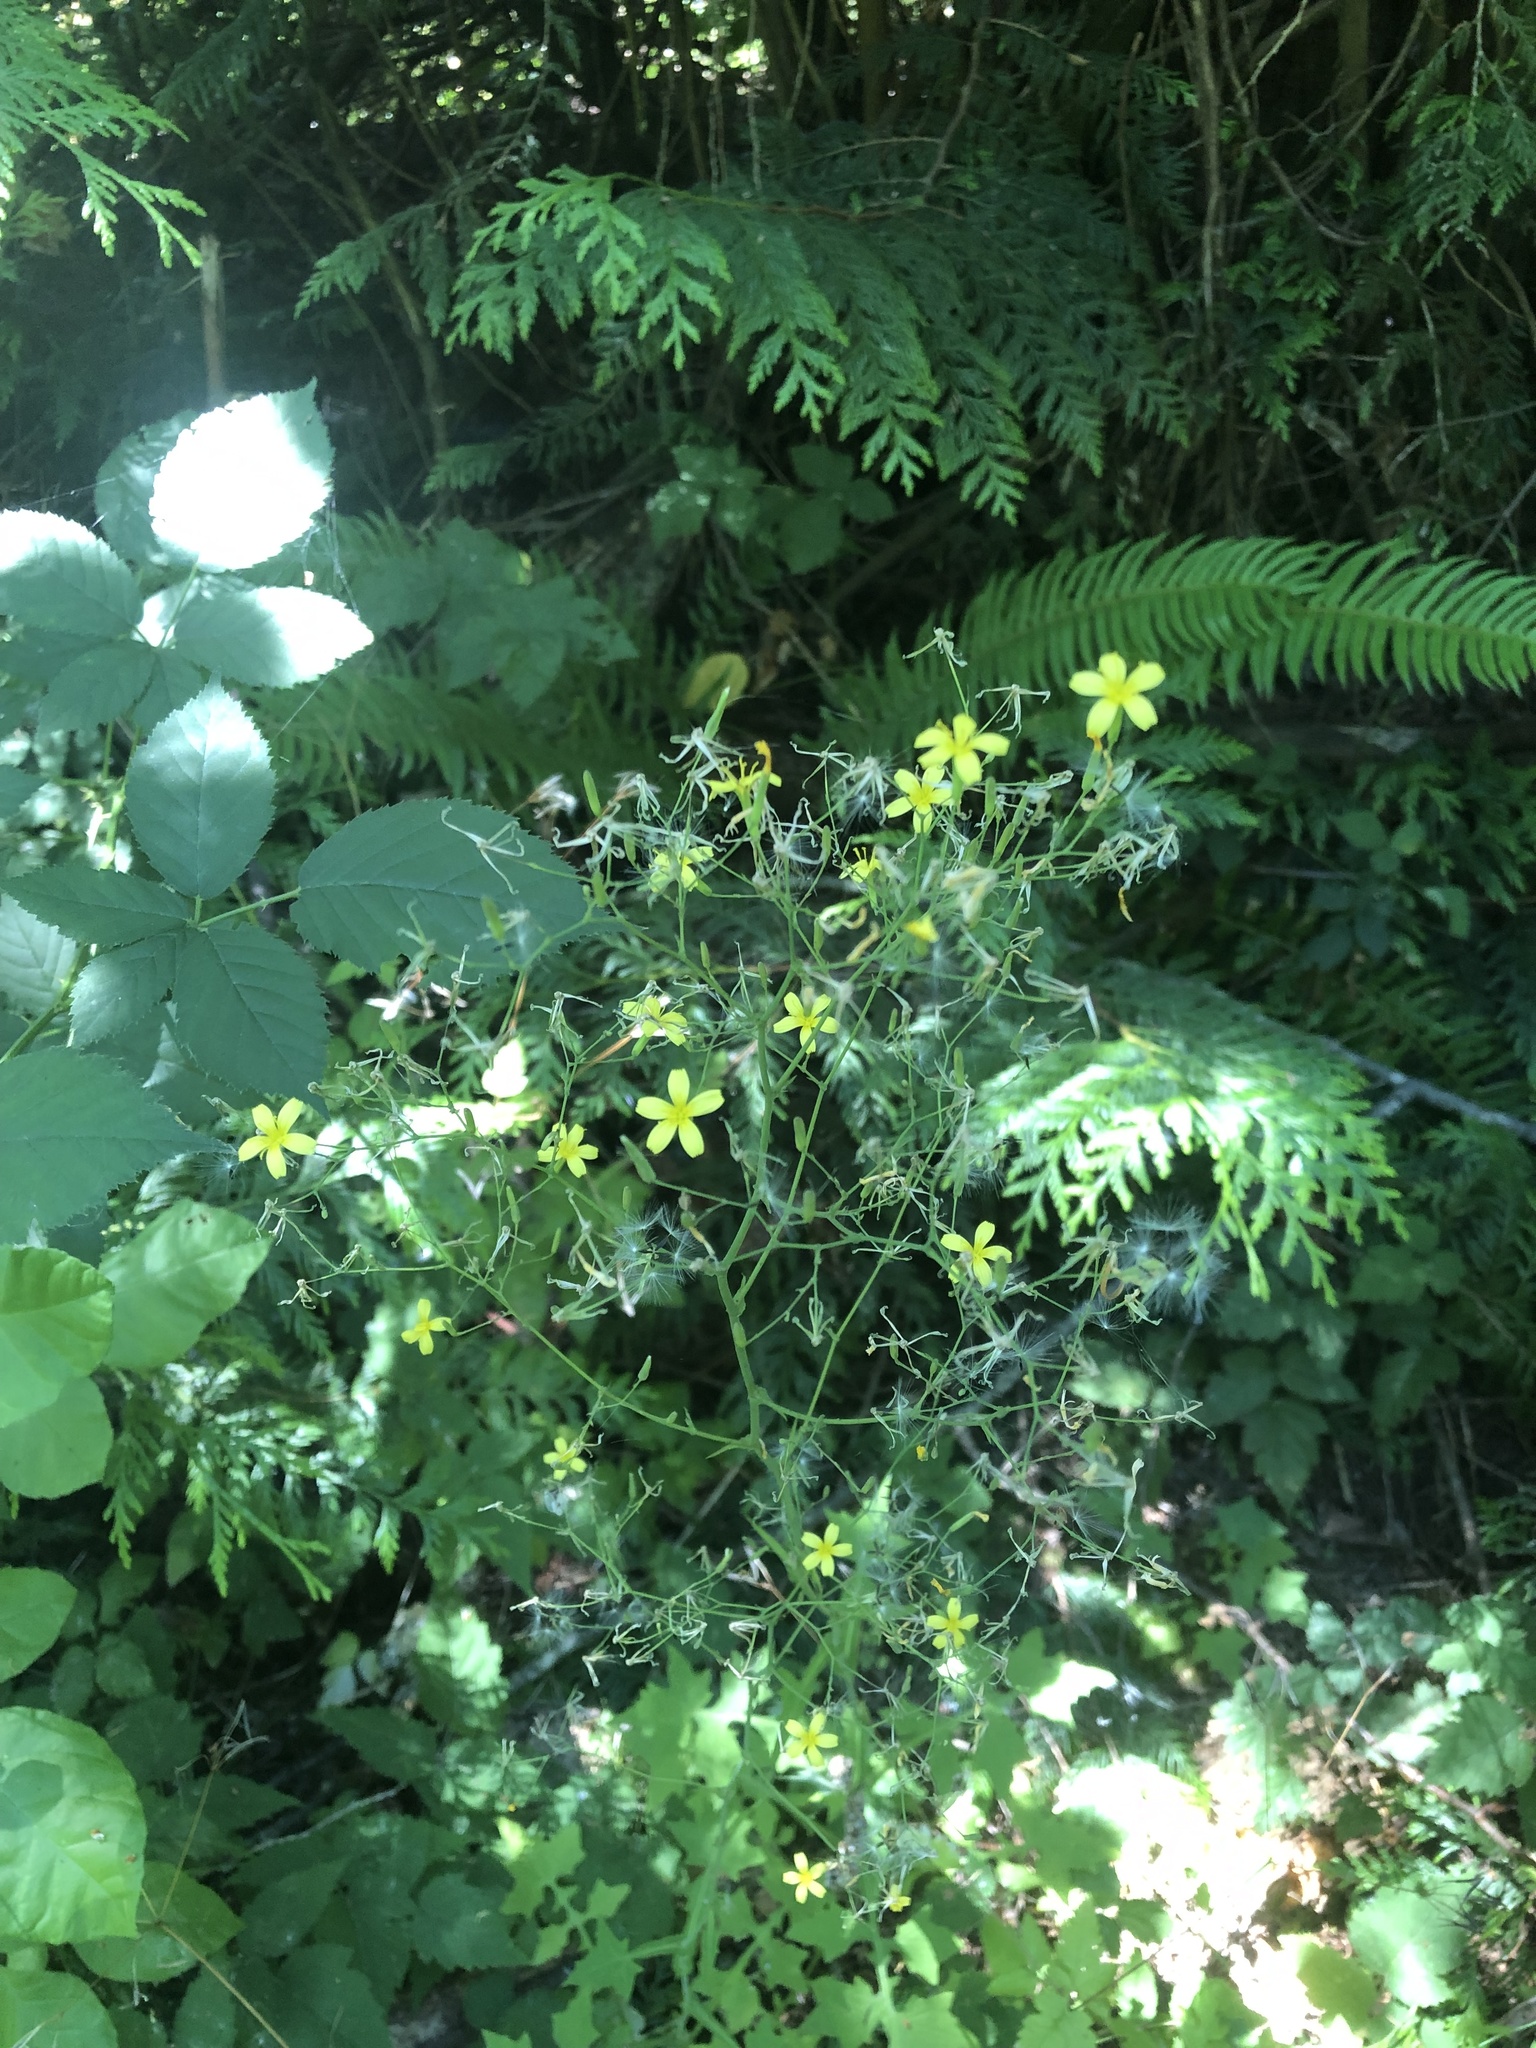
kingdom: Plantae
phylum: Tracheophyta
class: Magnoliopsida
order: Asterales
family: Asteraceae
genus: Mycelis
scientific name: Mycelis muralis
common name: Wall lettuce
